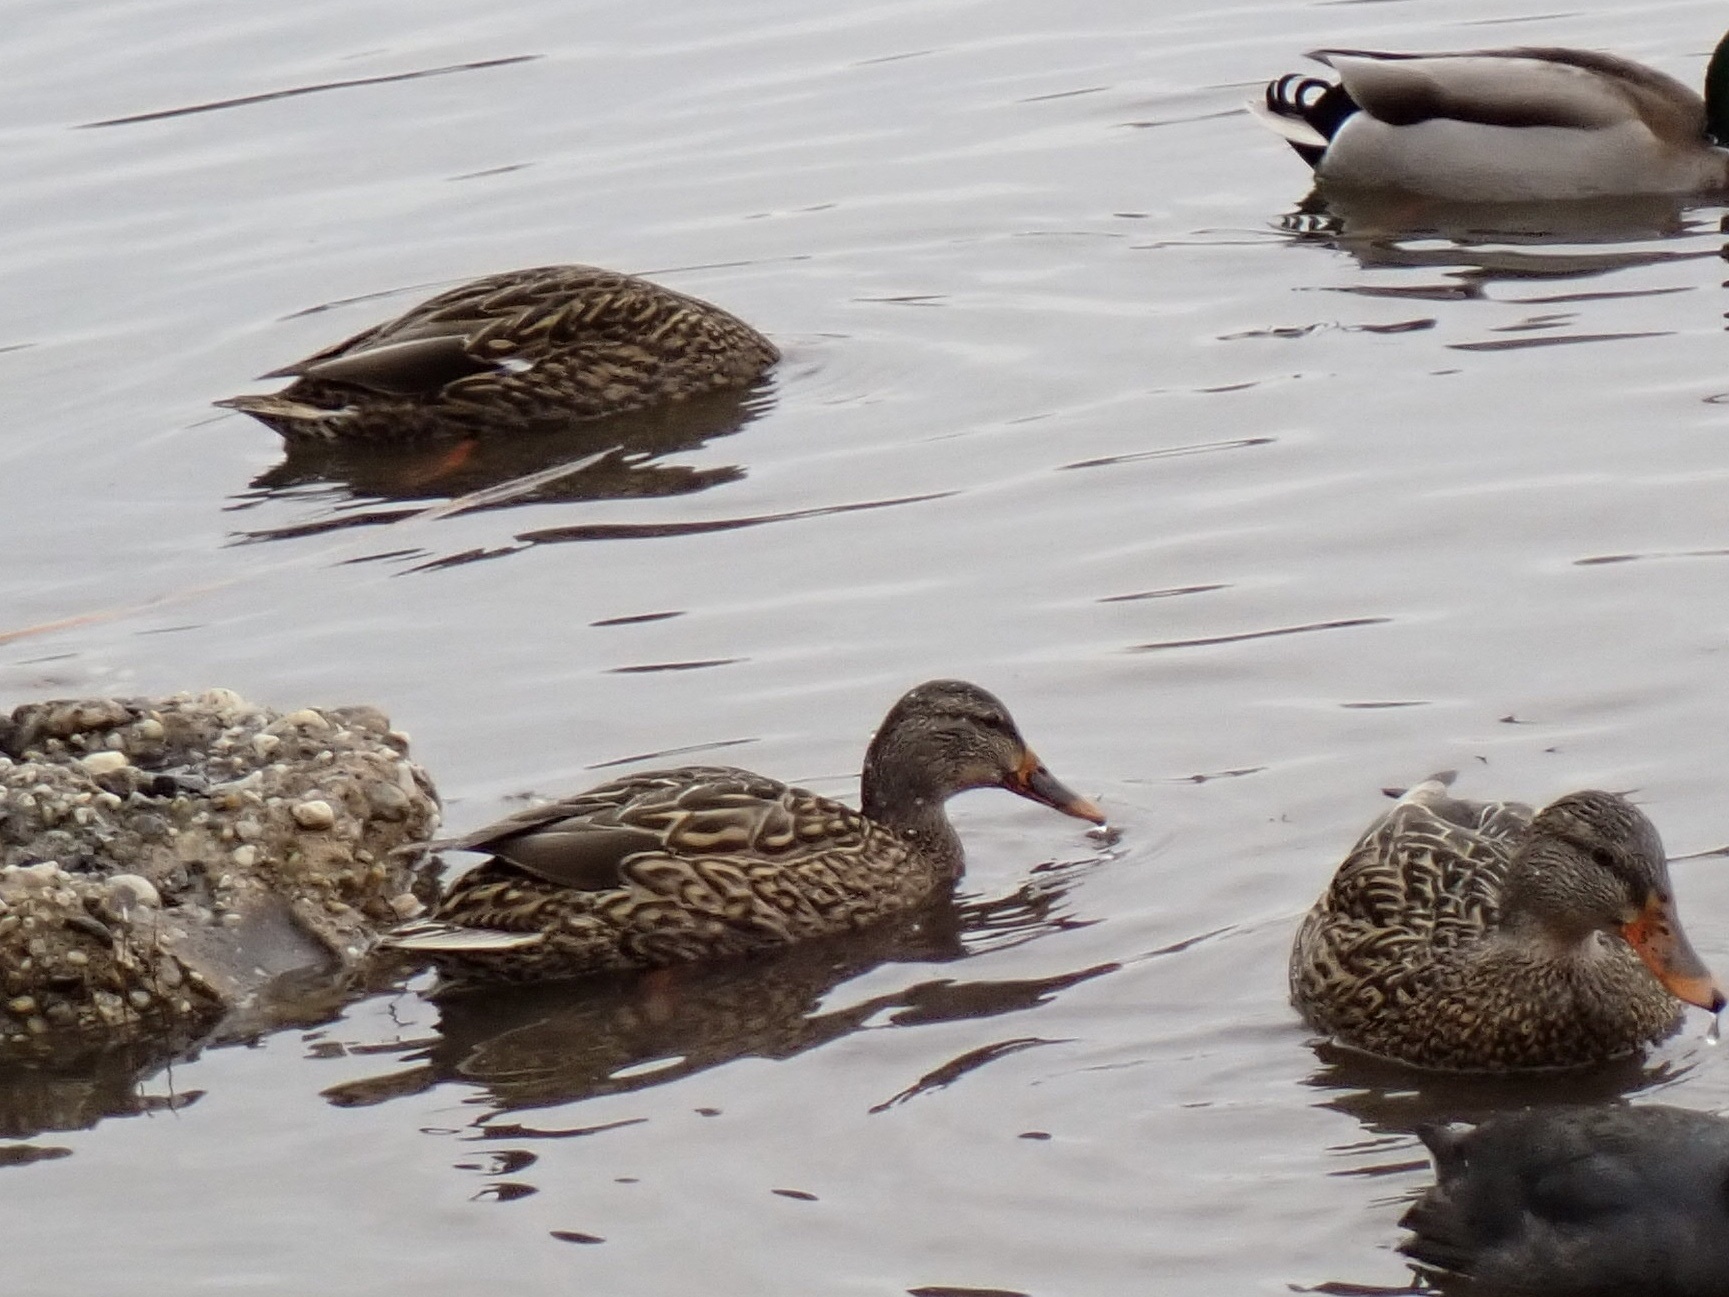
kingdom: Animalia
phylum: Chordata
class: Aves
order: Anseriformes
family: Anatidae
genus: Anas
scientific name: Anas platyrhynchos
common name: Mallard
